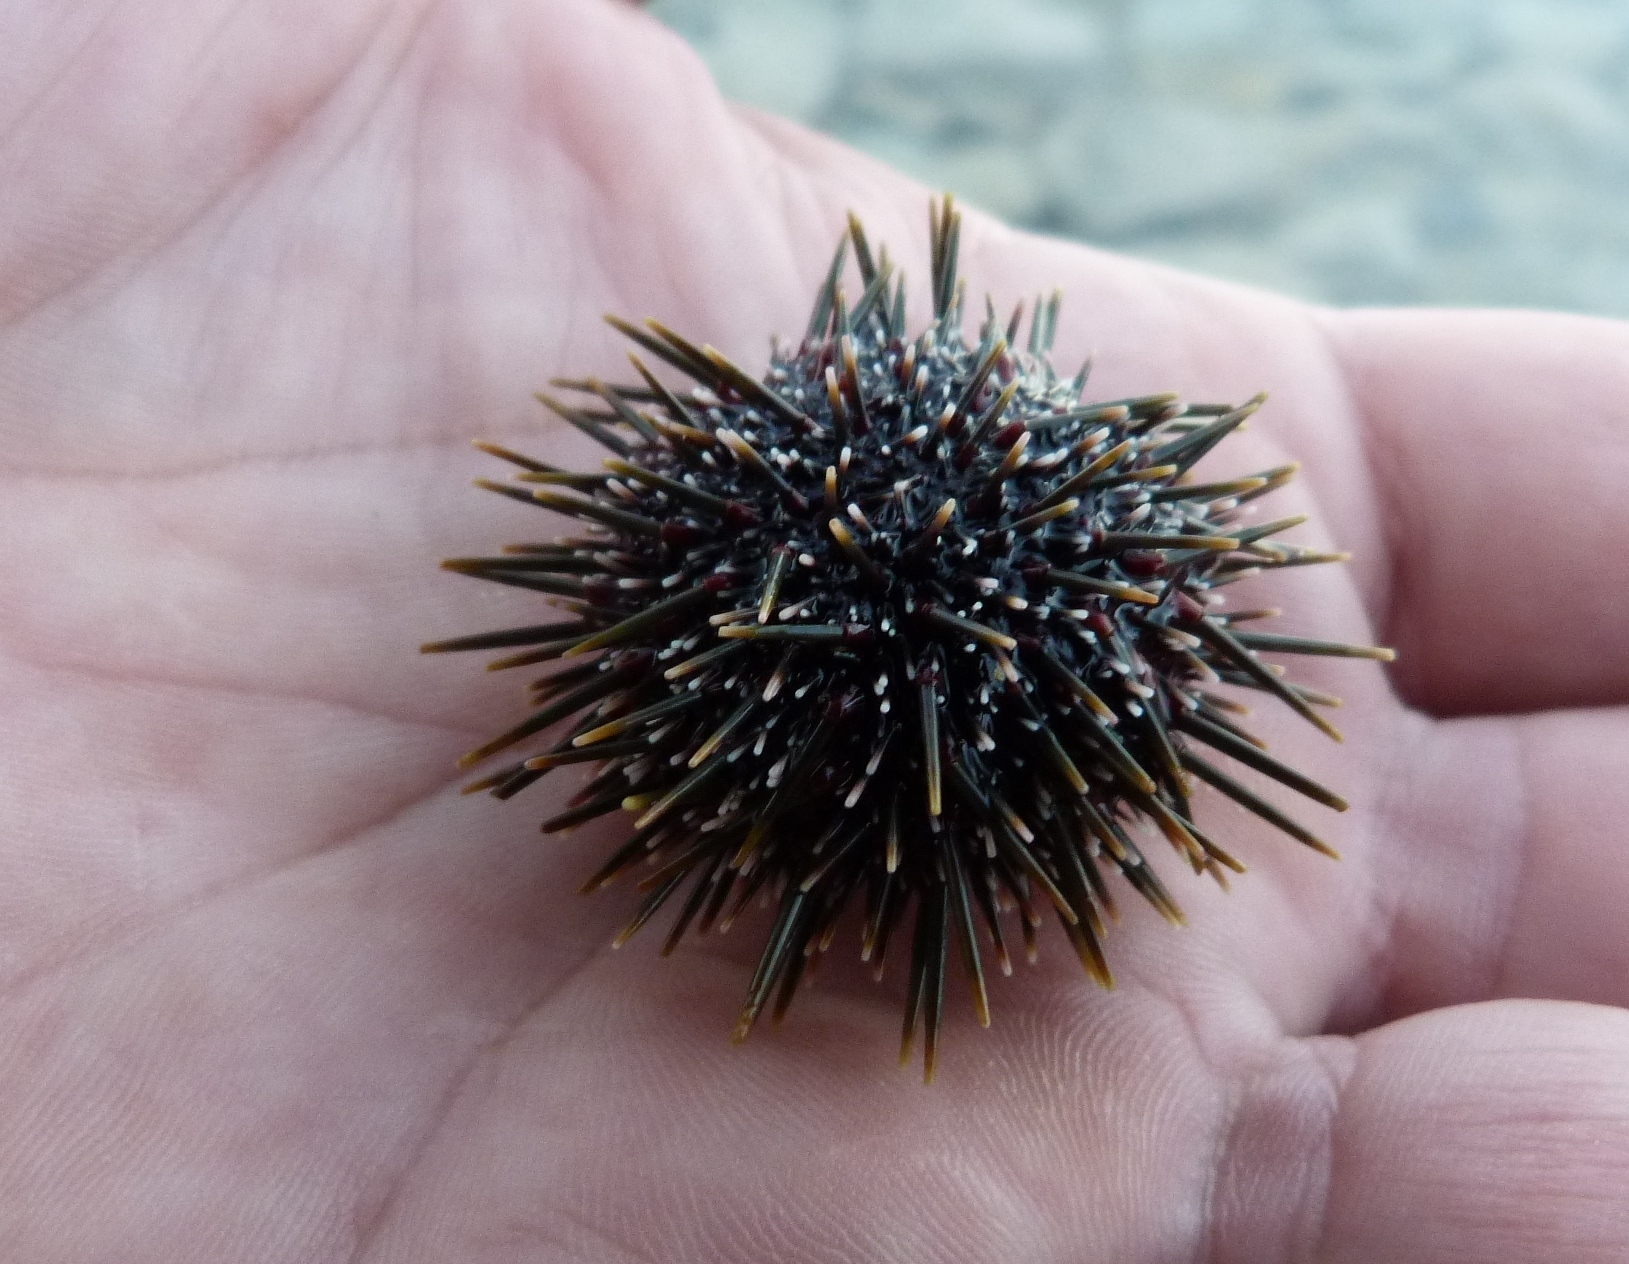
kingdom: Animalia
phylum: Echinodermata
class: Echinoidea
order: Camarodonta
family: Echinometridae
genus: Evechinus
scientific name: Evechinus chloroticus
